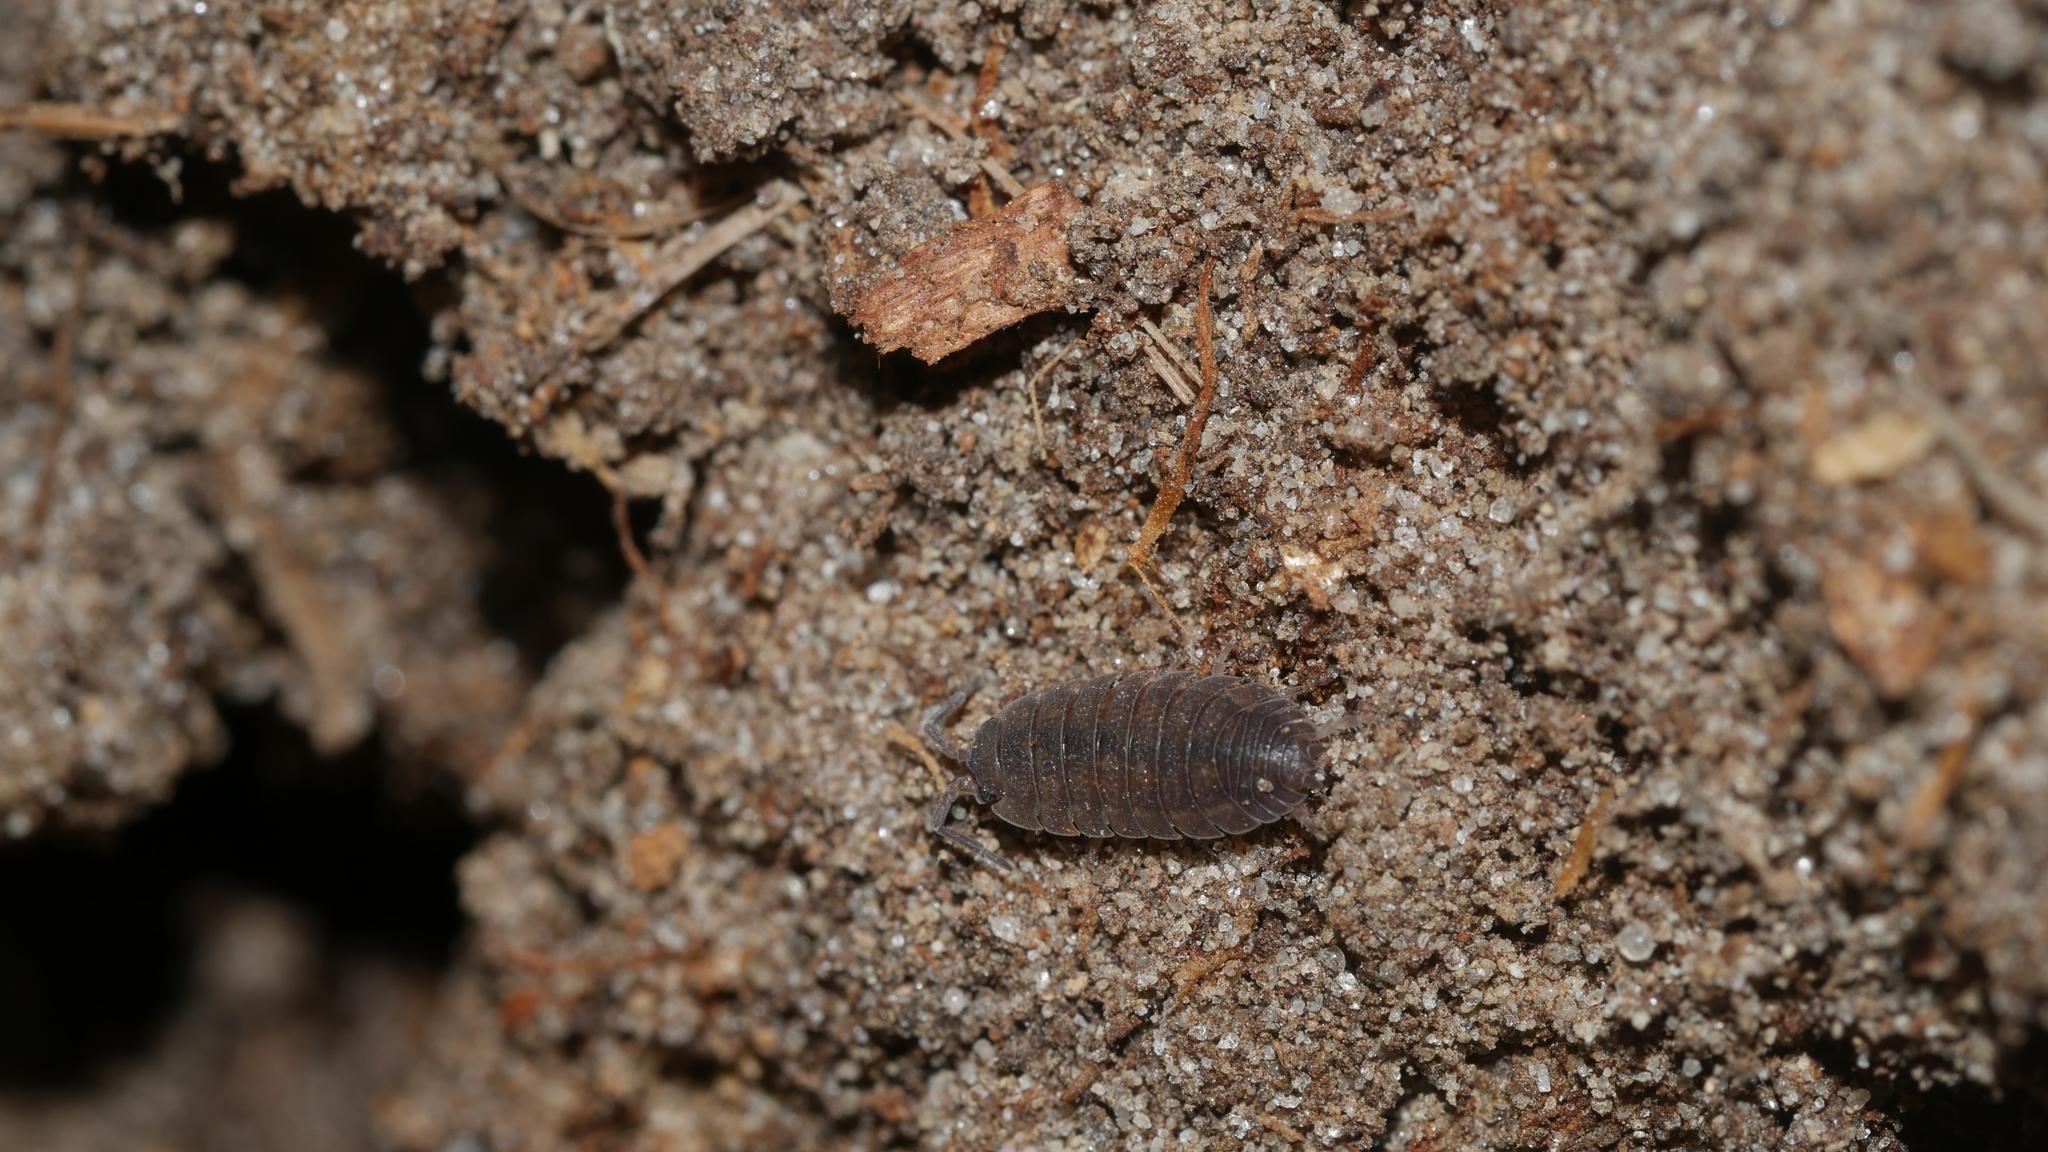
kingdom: Animalia
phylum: Arthropoda
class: Malacostraca
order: Isopoda
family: Porcellionidae
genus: Porcellio
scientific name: Porcellio scaber
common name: Common rough woodlouse
